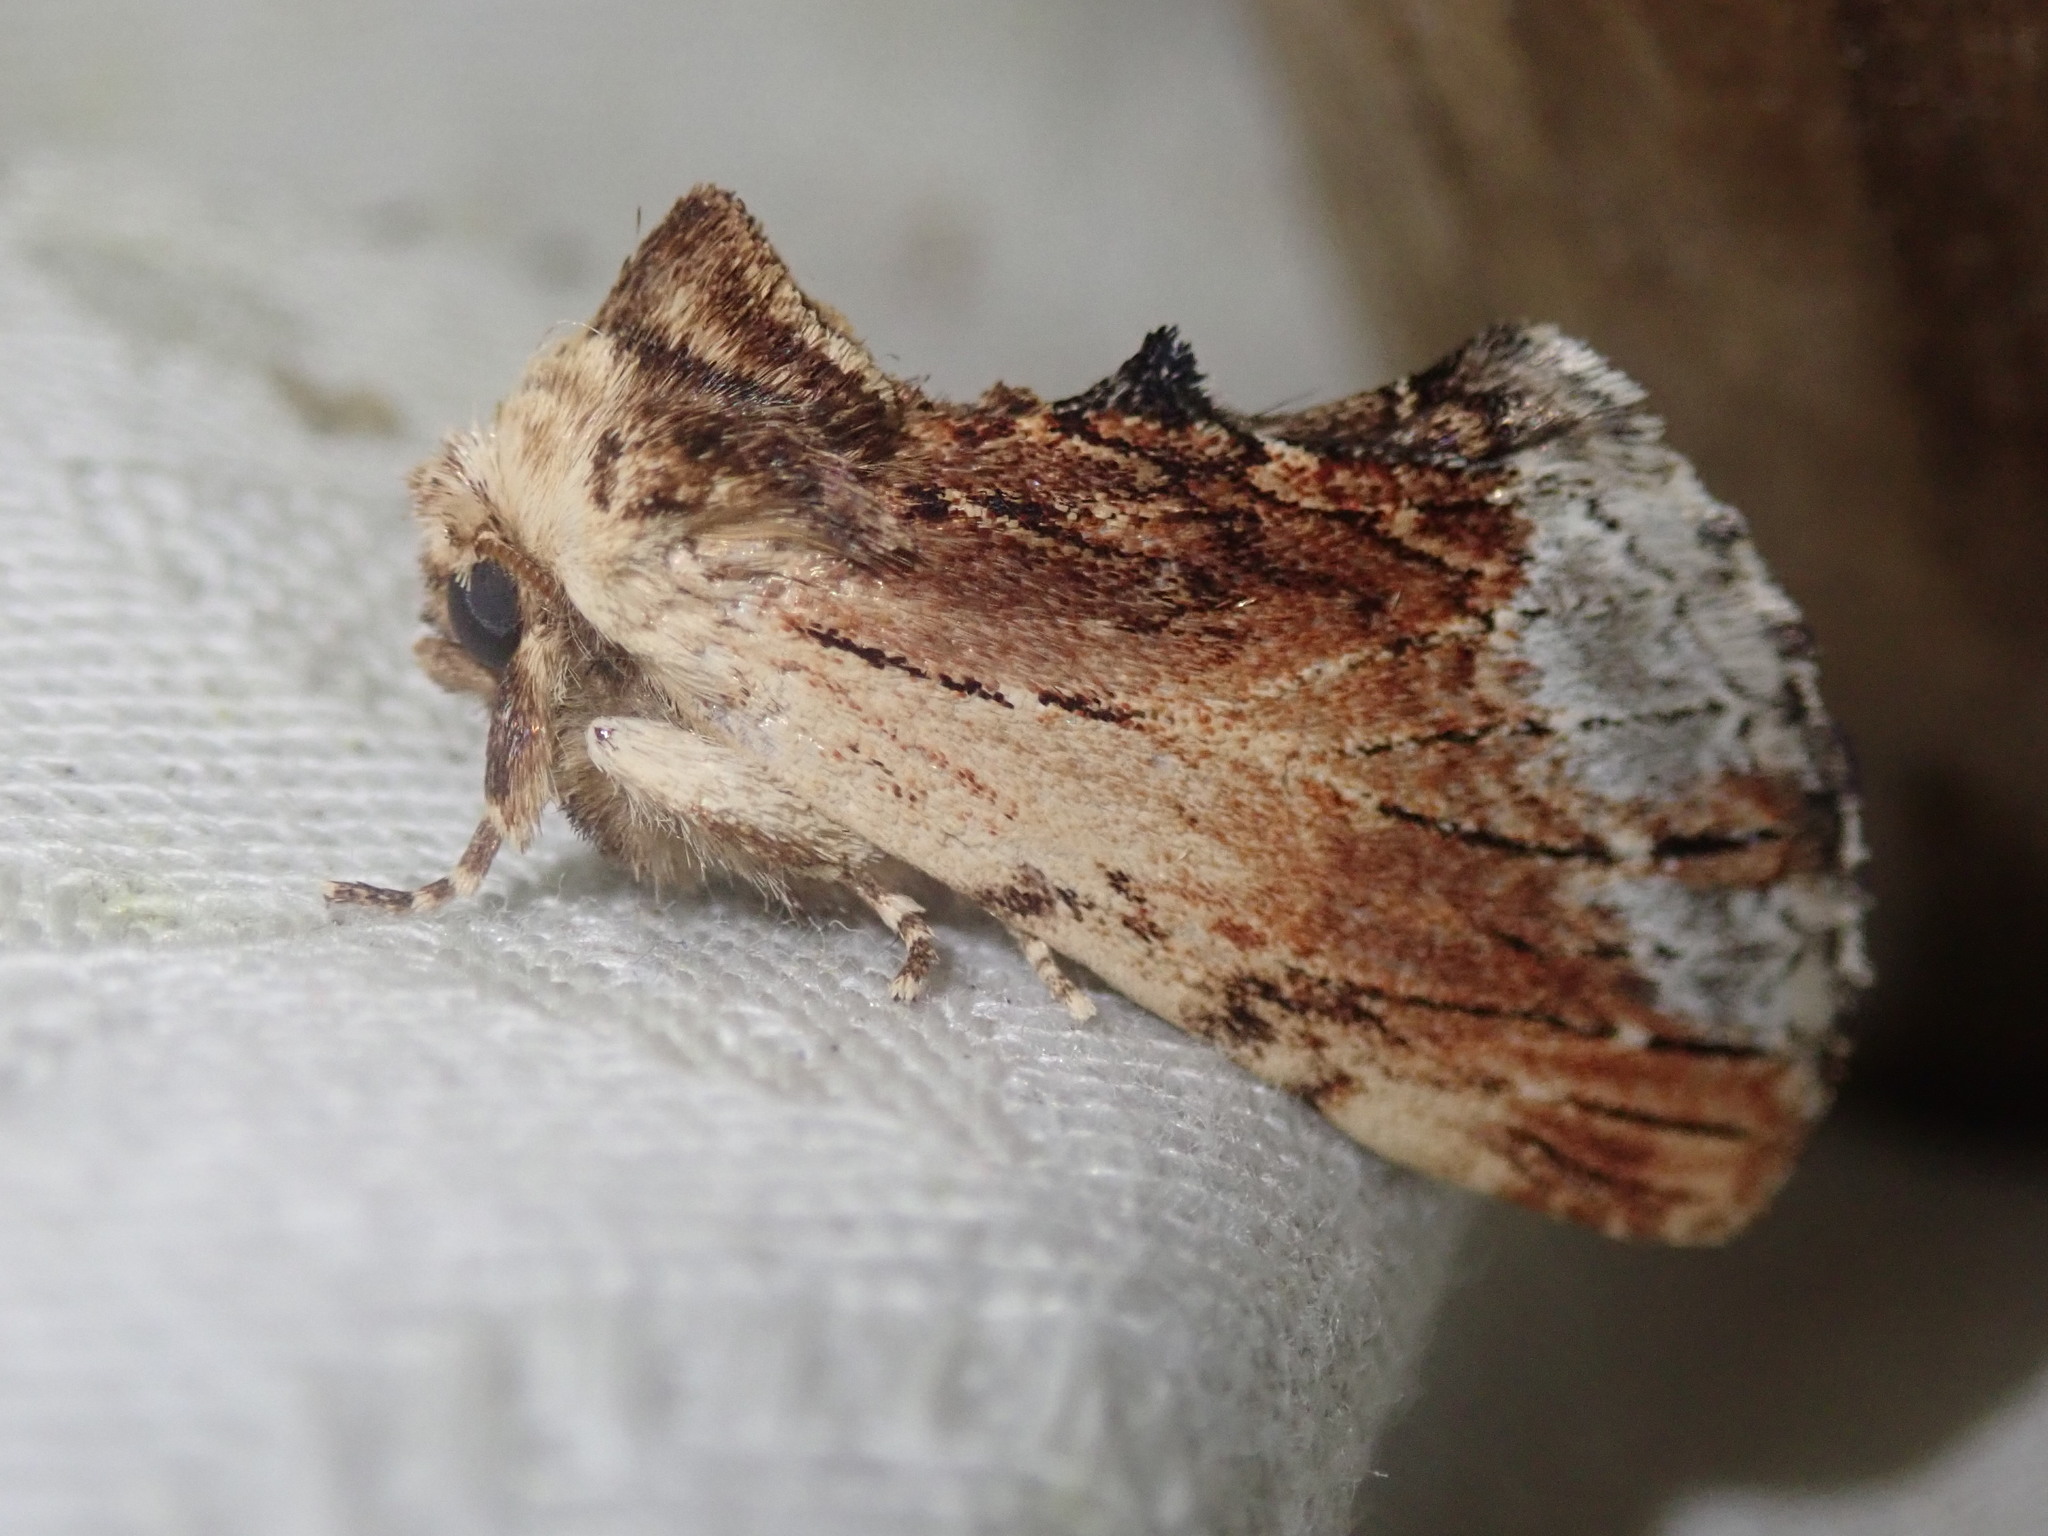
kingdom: Animalia
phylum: Arthropoda
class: Insecta
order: Lepidoptera
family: Notodontidae
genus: Ptilodon
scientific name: Ptilodon cucullina
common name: Maple prominent
